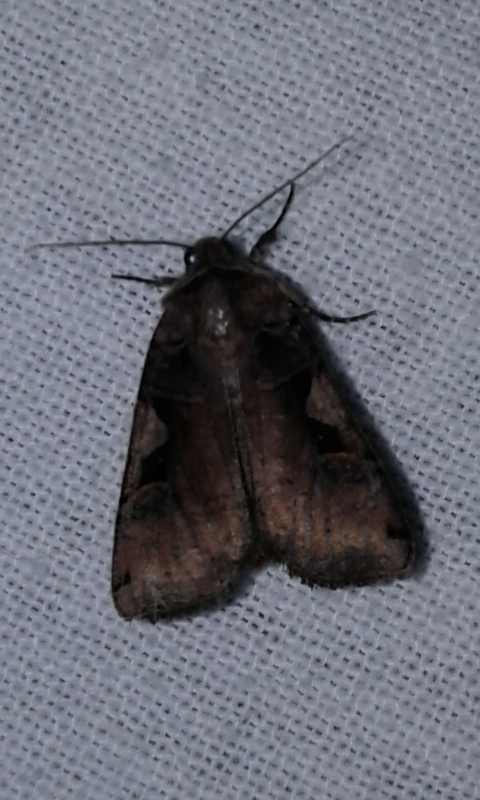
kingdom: Animalia
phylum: Arthropoda
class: Insecta
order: Lepidoptera
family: Noctuidae
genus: Xestia
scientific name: Xestia dolosa
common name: Cutworm moth
